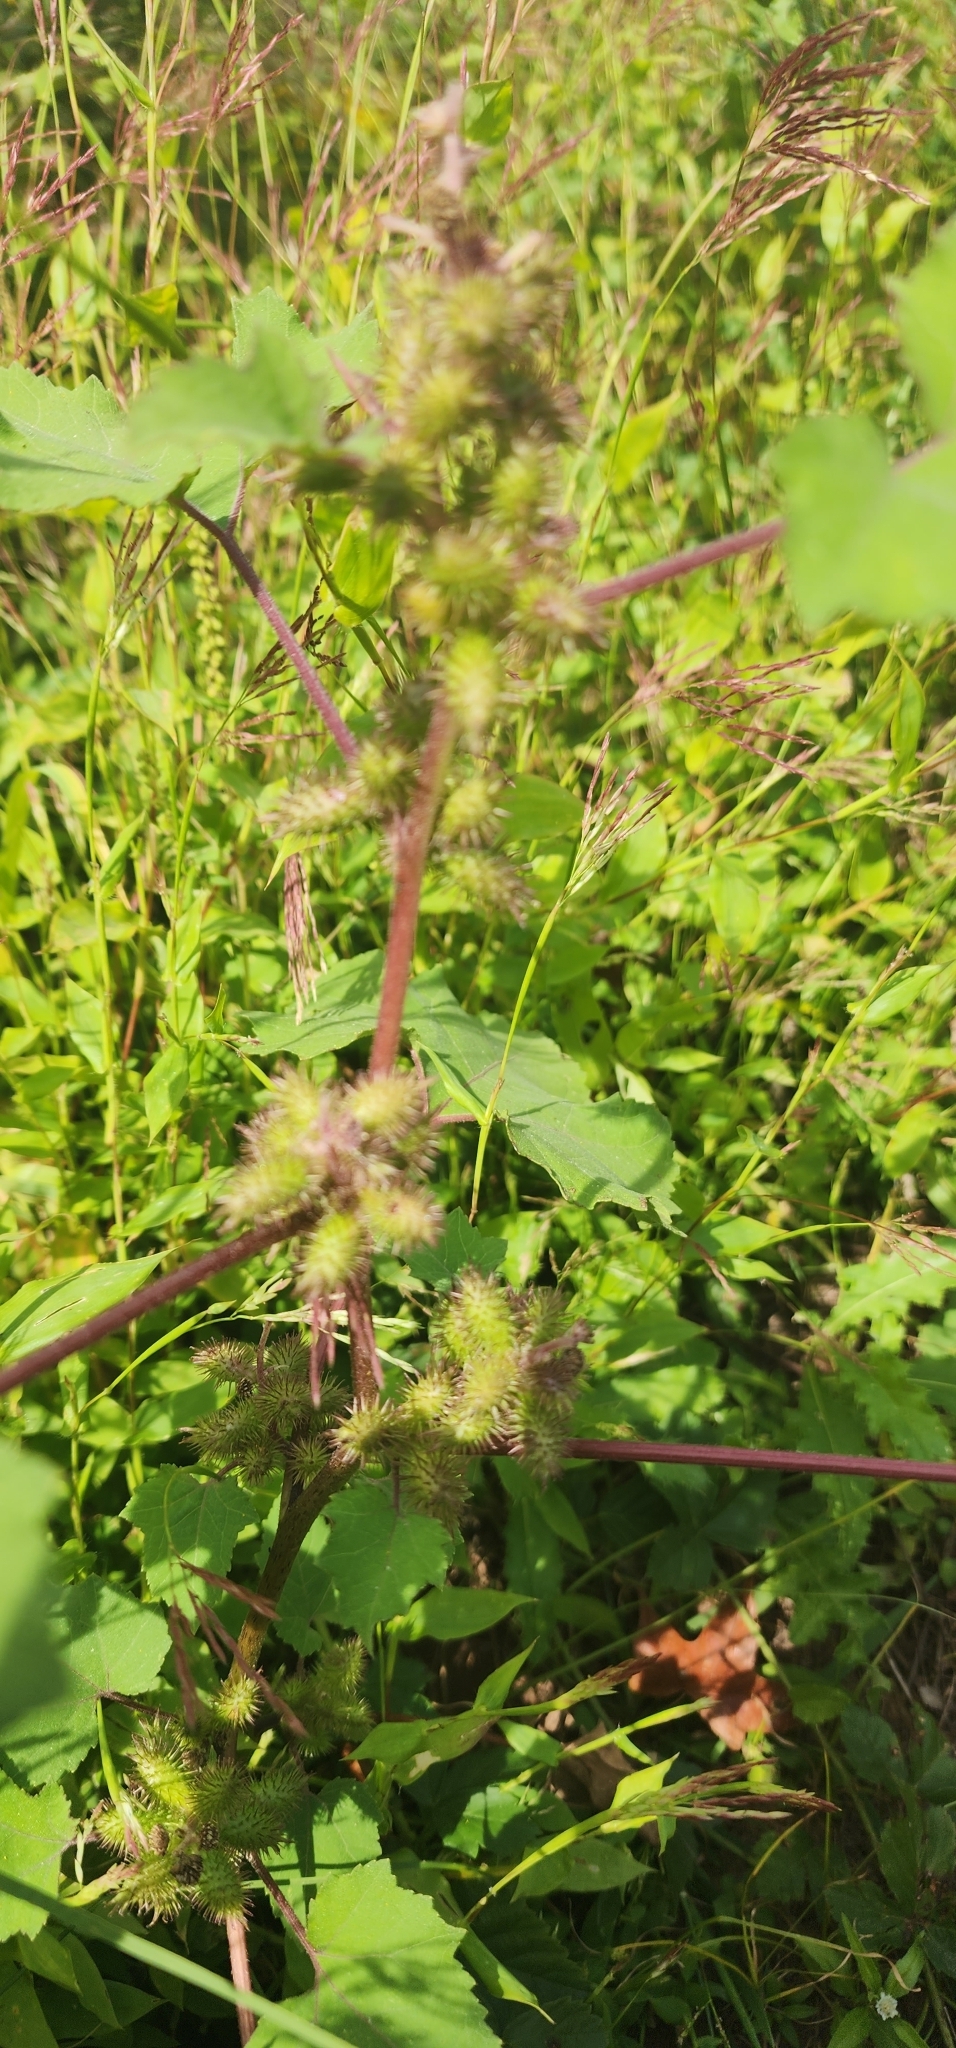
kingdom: Plantae
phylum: Tracheophyta
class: Magnoliopsida
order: Asterales
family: Asteraceae
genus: Xanthium
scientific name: Xanthium strumarium
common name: Rough cocklebur
